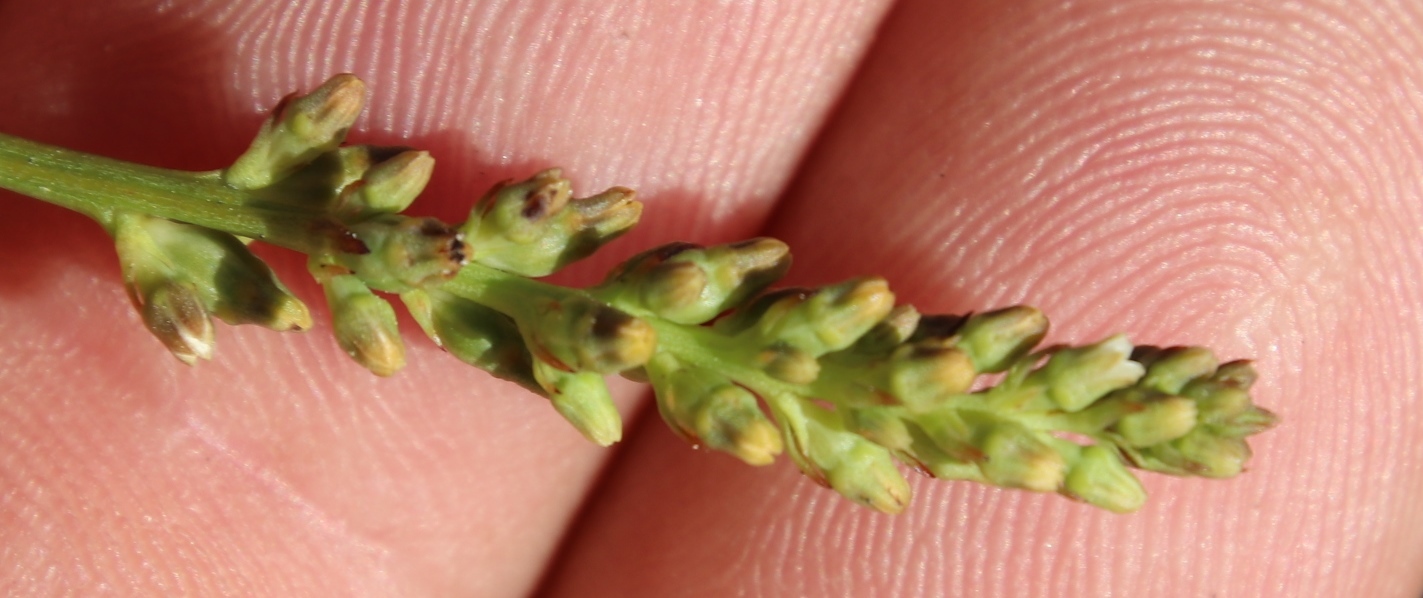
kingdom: Plantae
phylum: Tracheophyta
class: Magnoliopsida
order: Santalales
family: Thesiaceae
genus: Thesium
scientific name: Thesium funale
